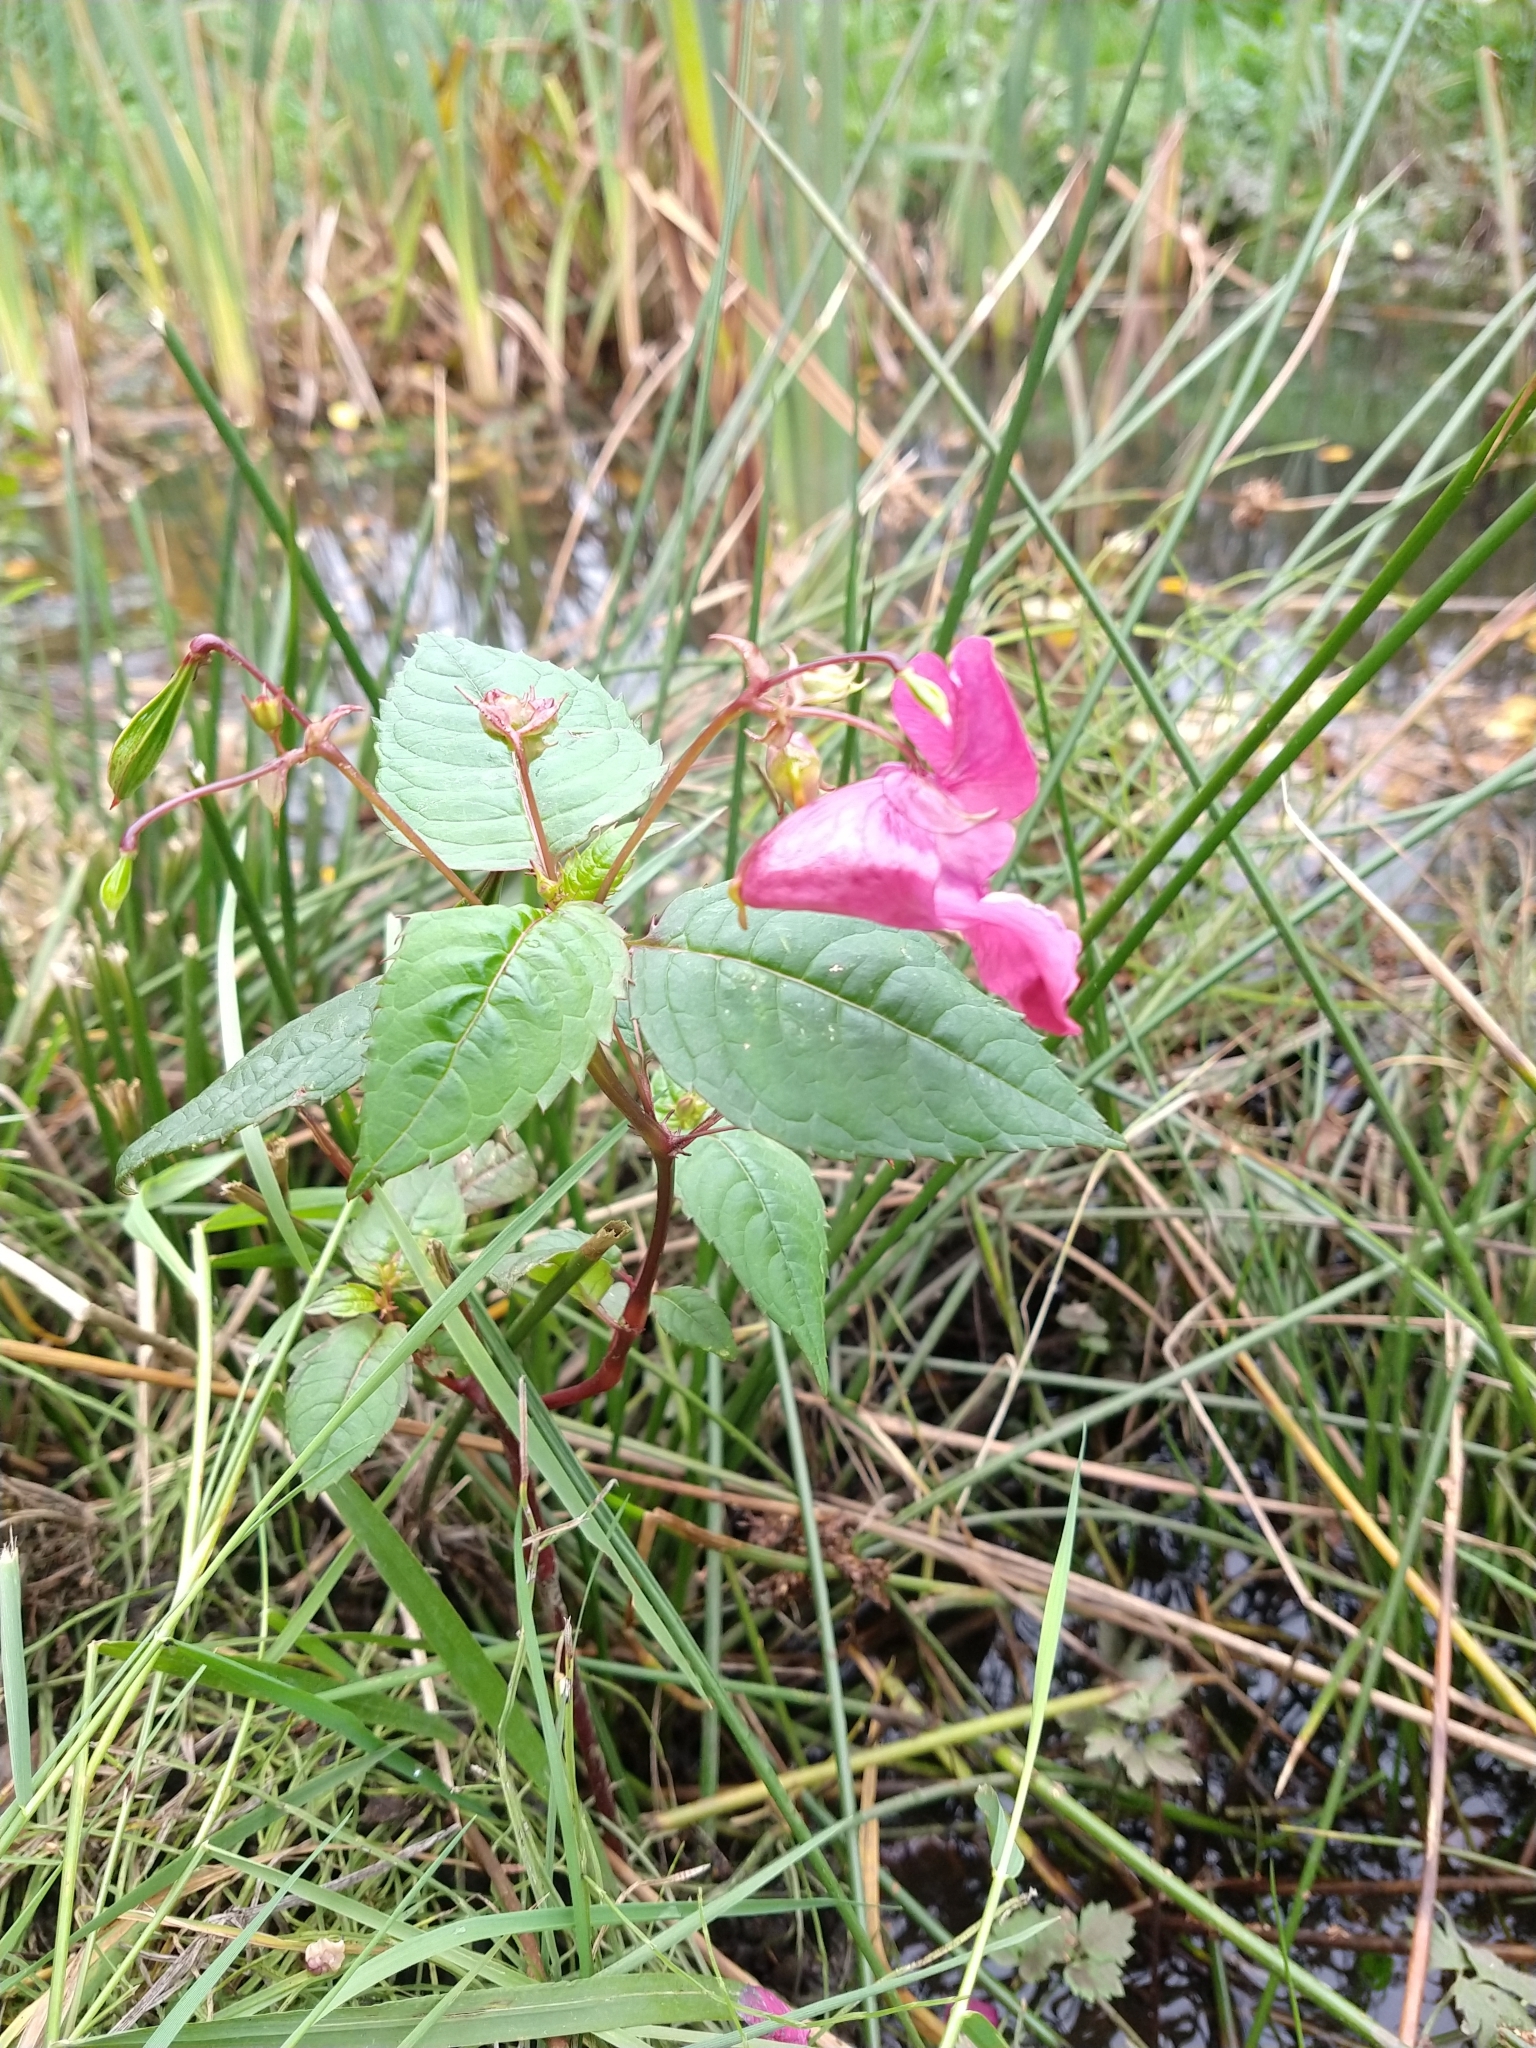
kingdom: Plantae
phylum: Tracheophyta
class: Magnoliopsida
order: Ericales
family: Balsaminaceae
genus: Impatiens
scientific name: Impatiens glandulifera
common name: Himalayan balsam
